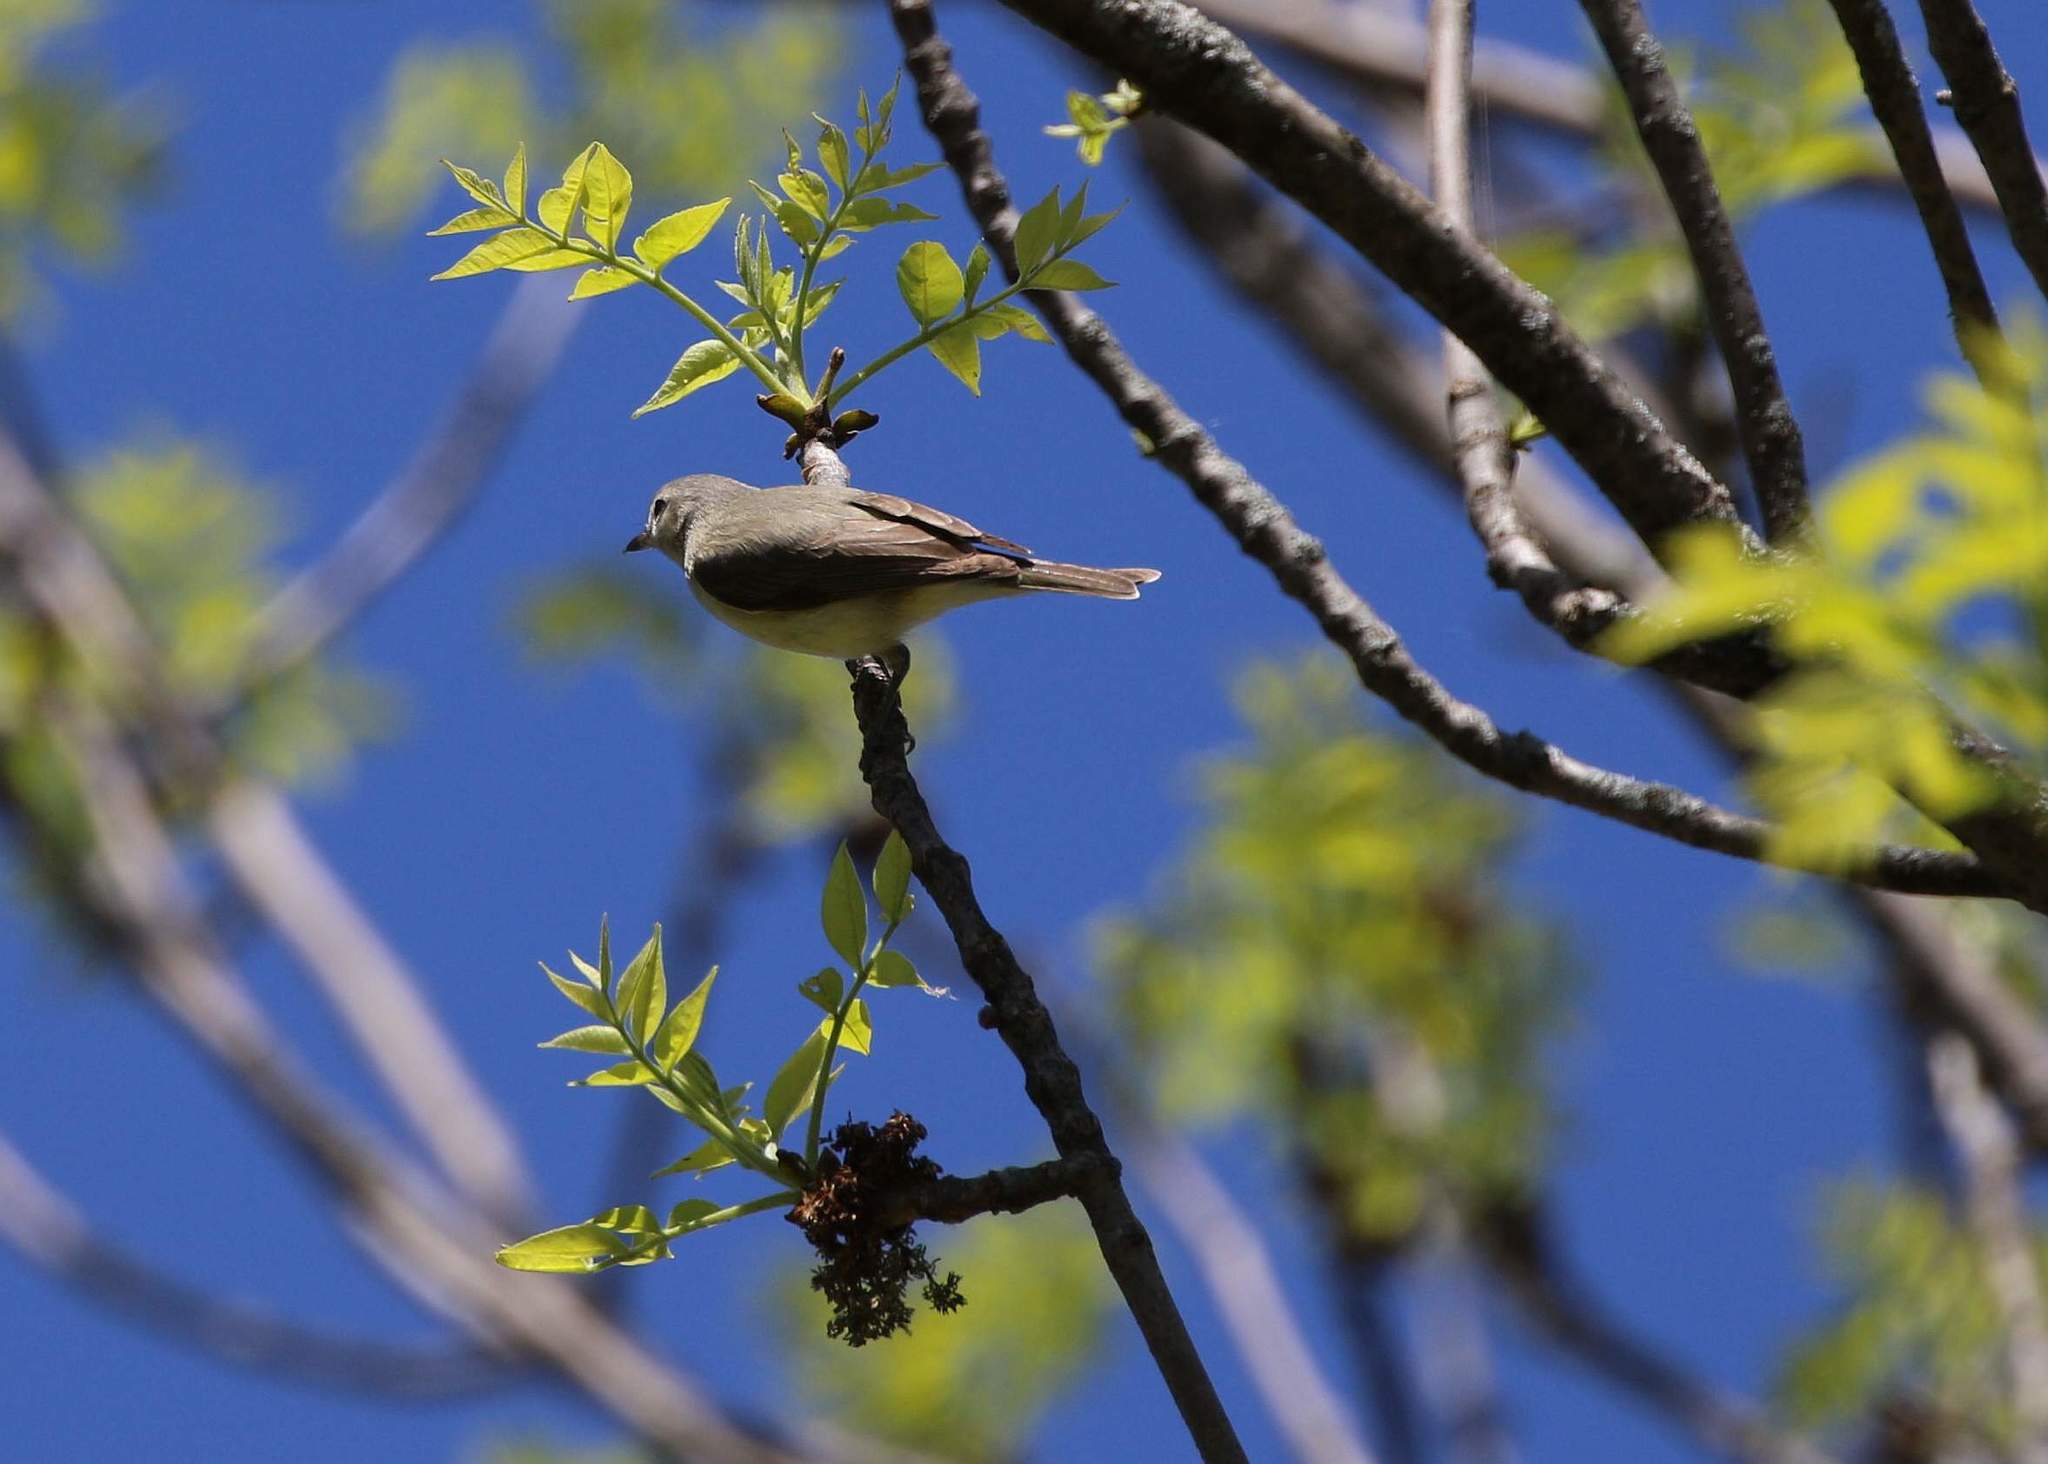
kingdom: Animalia
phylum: Chordata
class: Aves
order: Passeriformes
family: Vireonidae
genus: Vireo
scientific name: Vireo gilvus
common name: Warbling vireo
